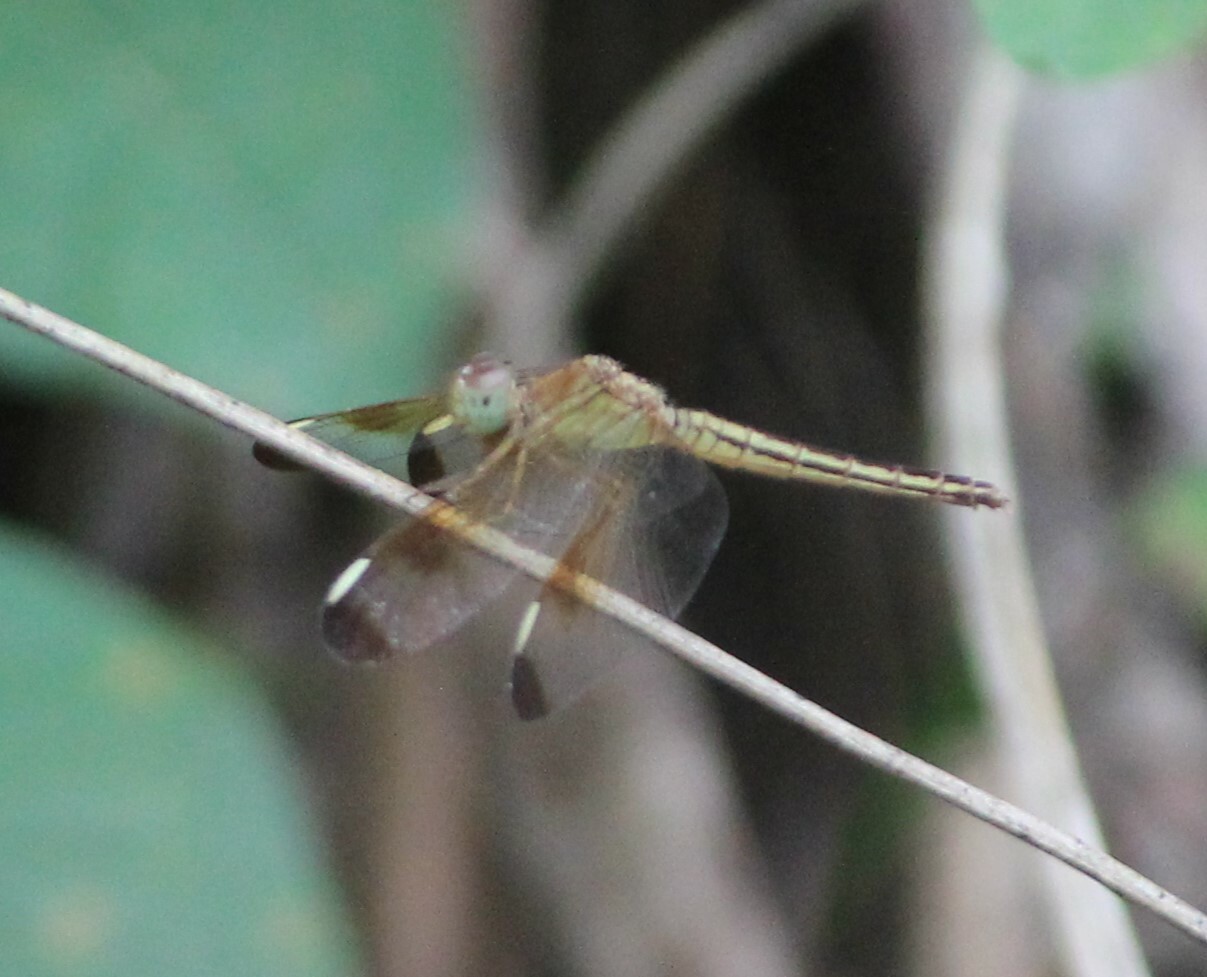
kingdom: Animalia
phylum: Arthropoda
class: Insecta
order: Odonata
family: Libellulidae
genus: Neurothemis
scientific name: Neurothemis stigmatizans
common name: Painted grasshawk
